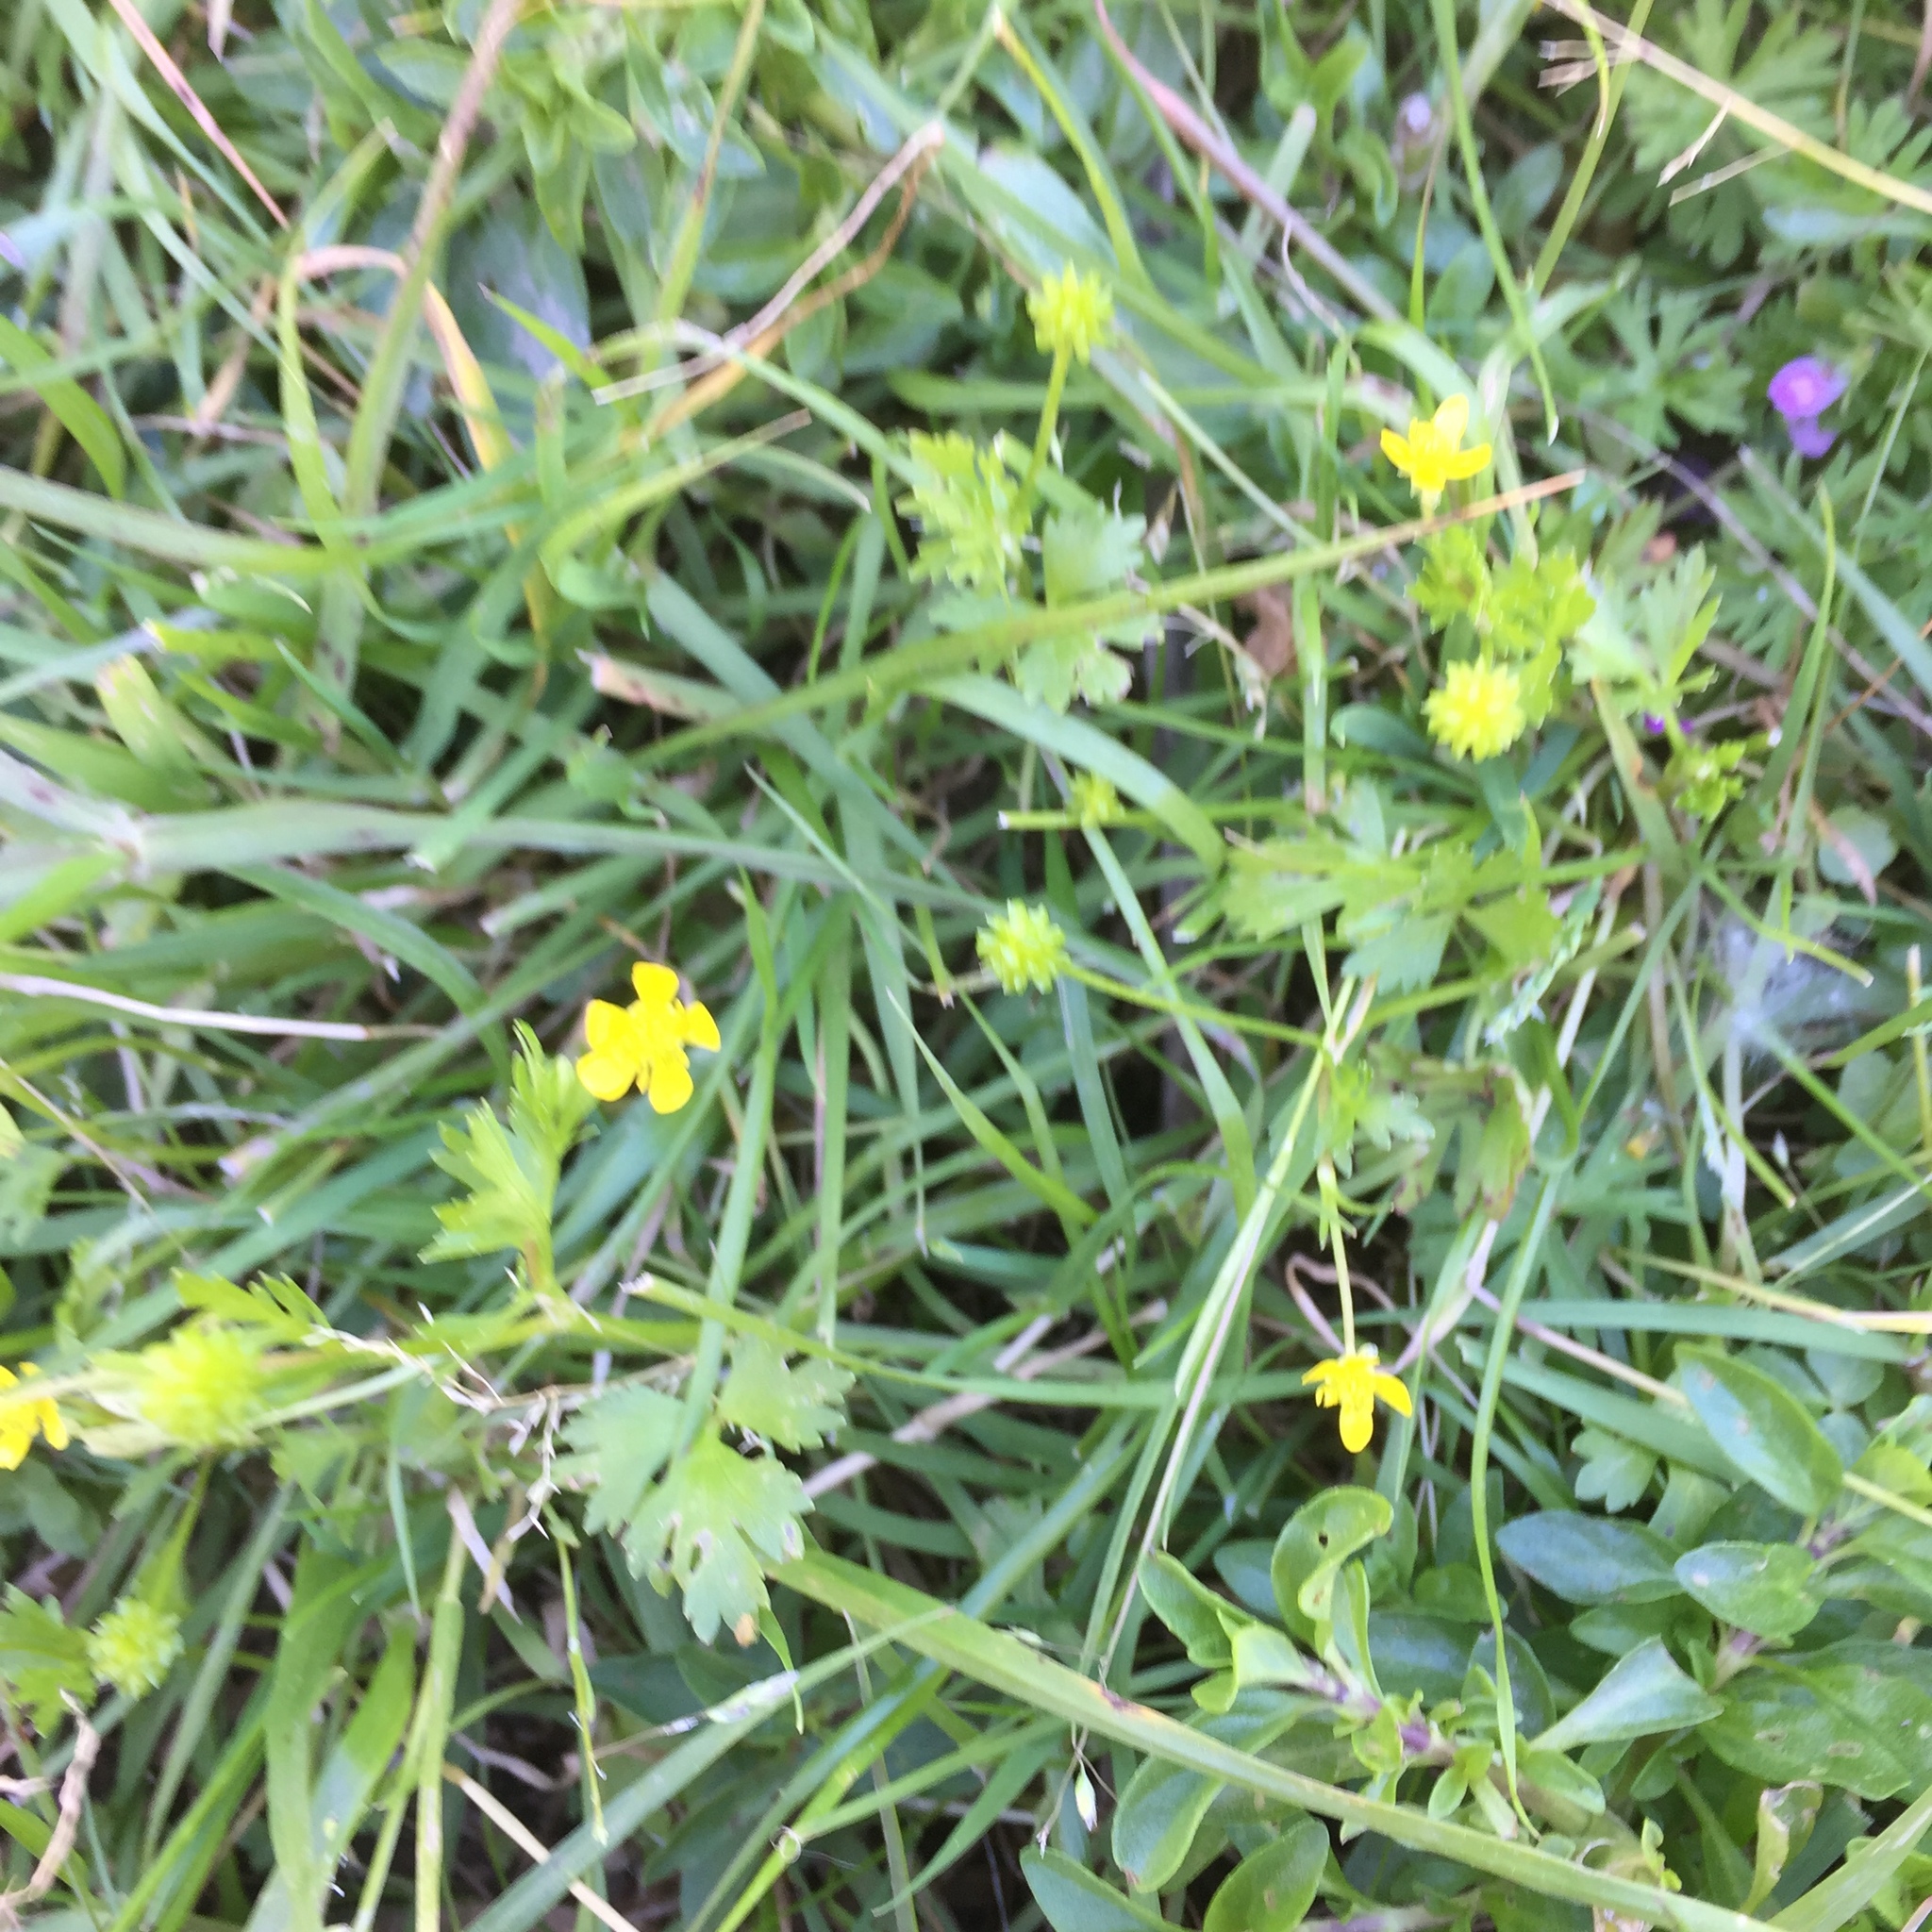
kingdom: Plantae
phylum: Tracheophyta
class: Magnoliopsida
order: Ranunculales
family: Ranunculaceae
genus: Ranunculus
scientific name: Ranunculus muricatus
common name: Rough-fruited buttercup
